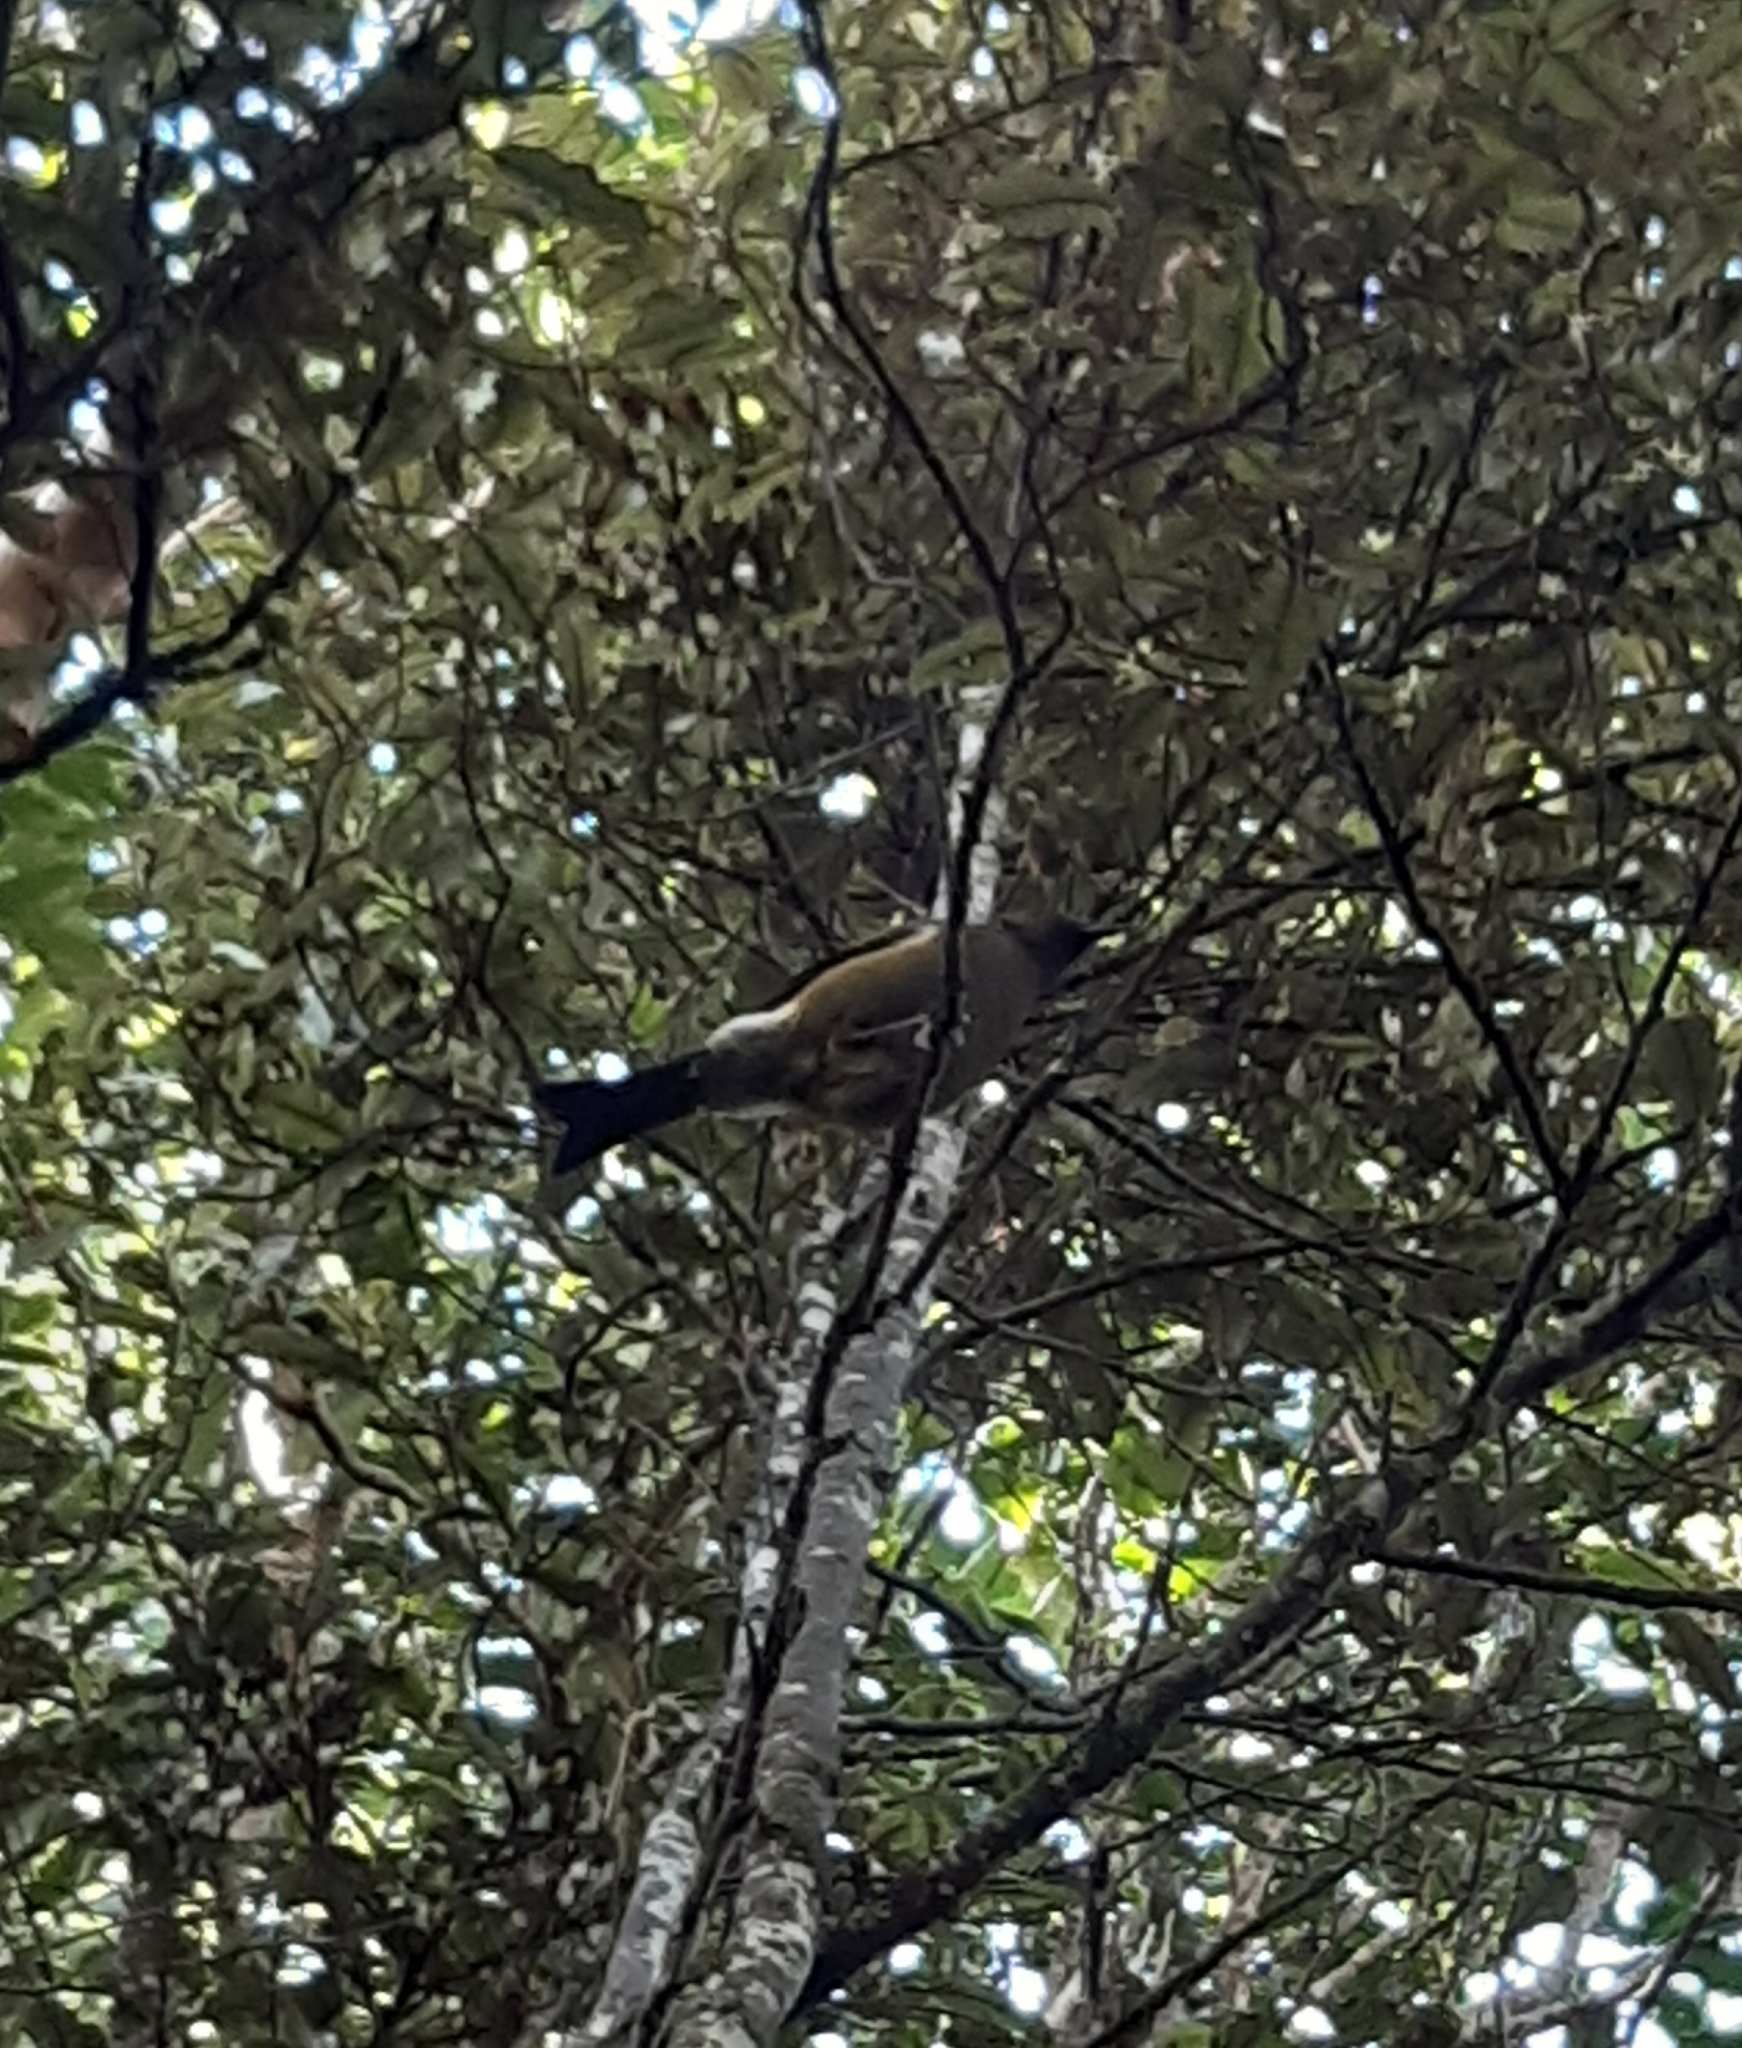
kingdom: Animalia
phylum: Chordata
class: Aves
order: Passeriformes
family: Meliphagidae
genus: Anthornis
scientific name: Anthornis melanura
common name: New zealand bellbird
